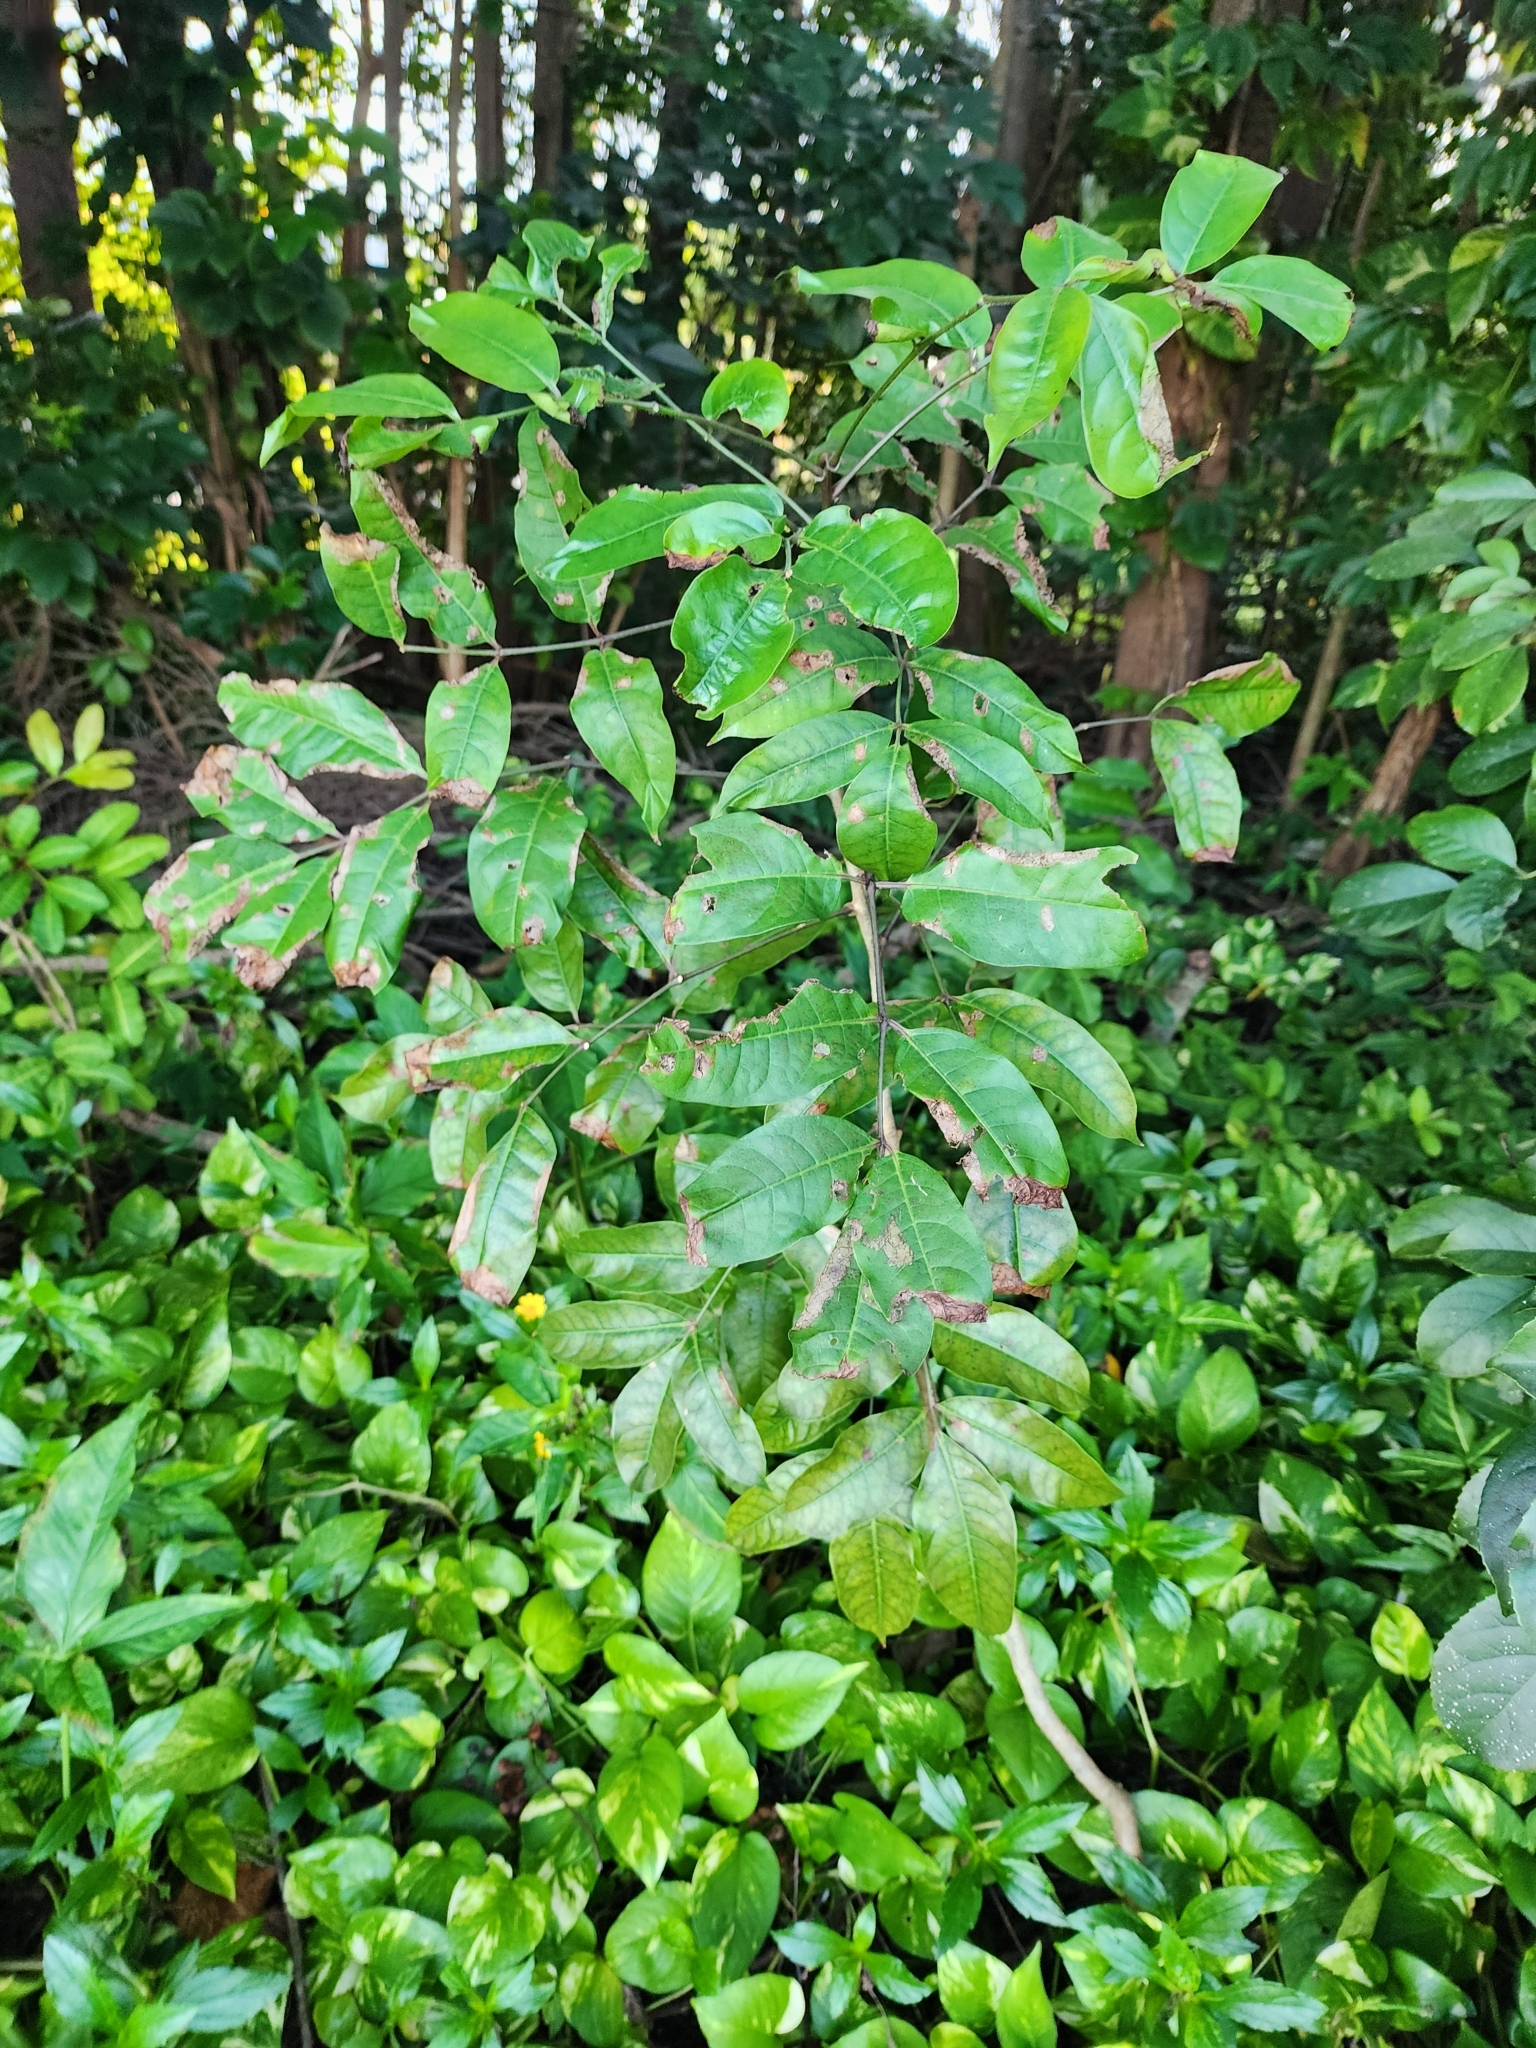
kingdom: Plantae
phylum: Tracheophyta
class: Magnoliopsida
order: Sapindales
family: Burseraceae
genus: Bursera
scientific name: Bursera simaruba
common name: Turpentine tree
